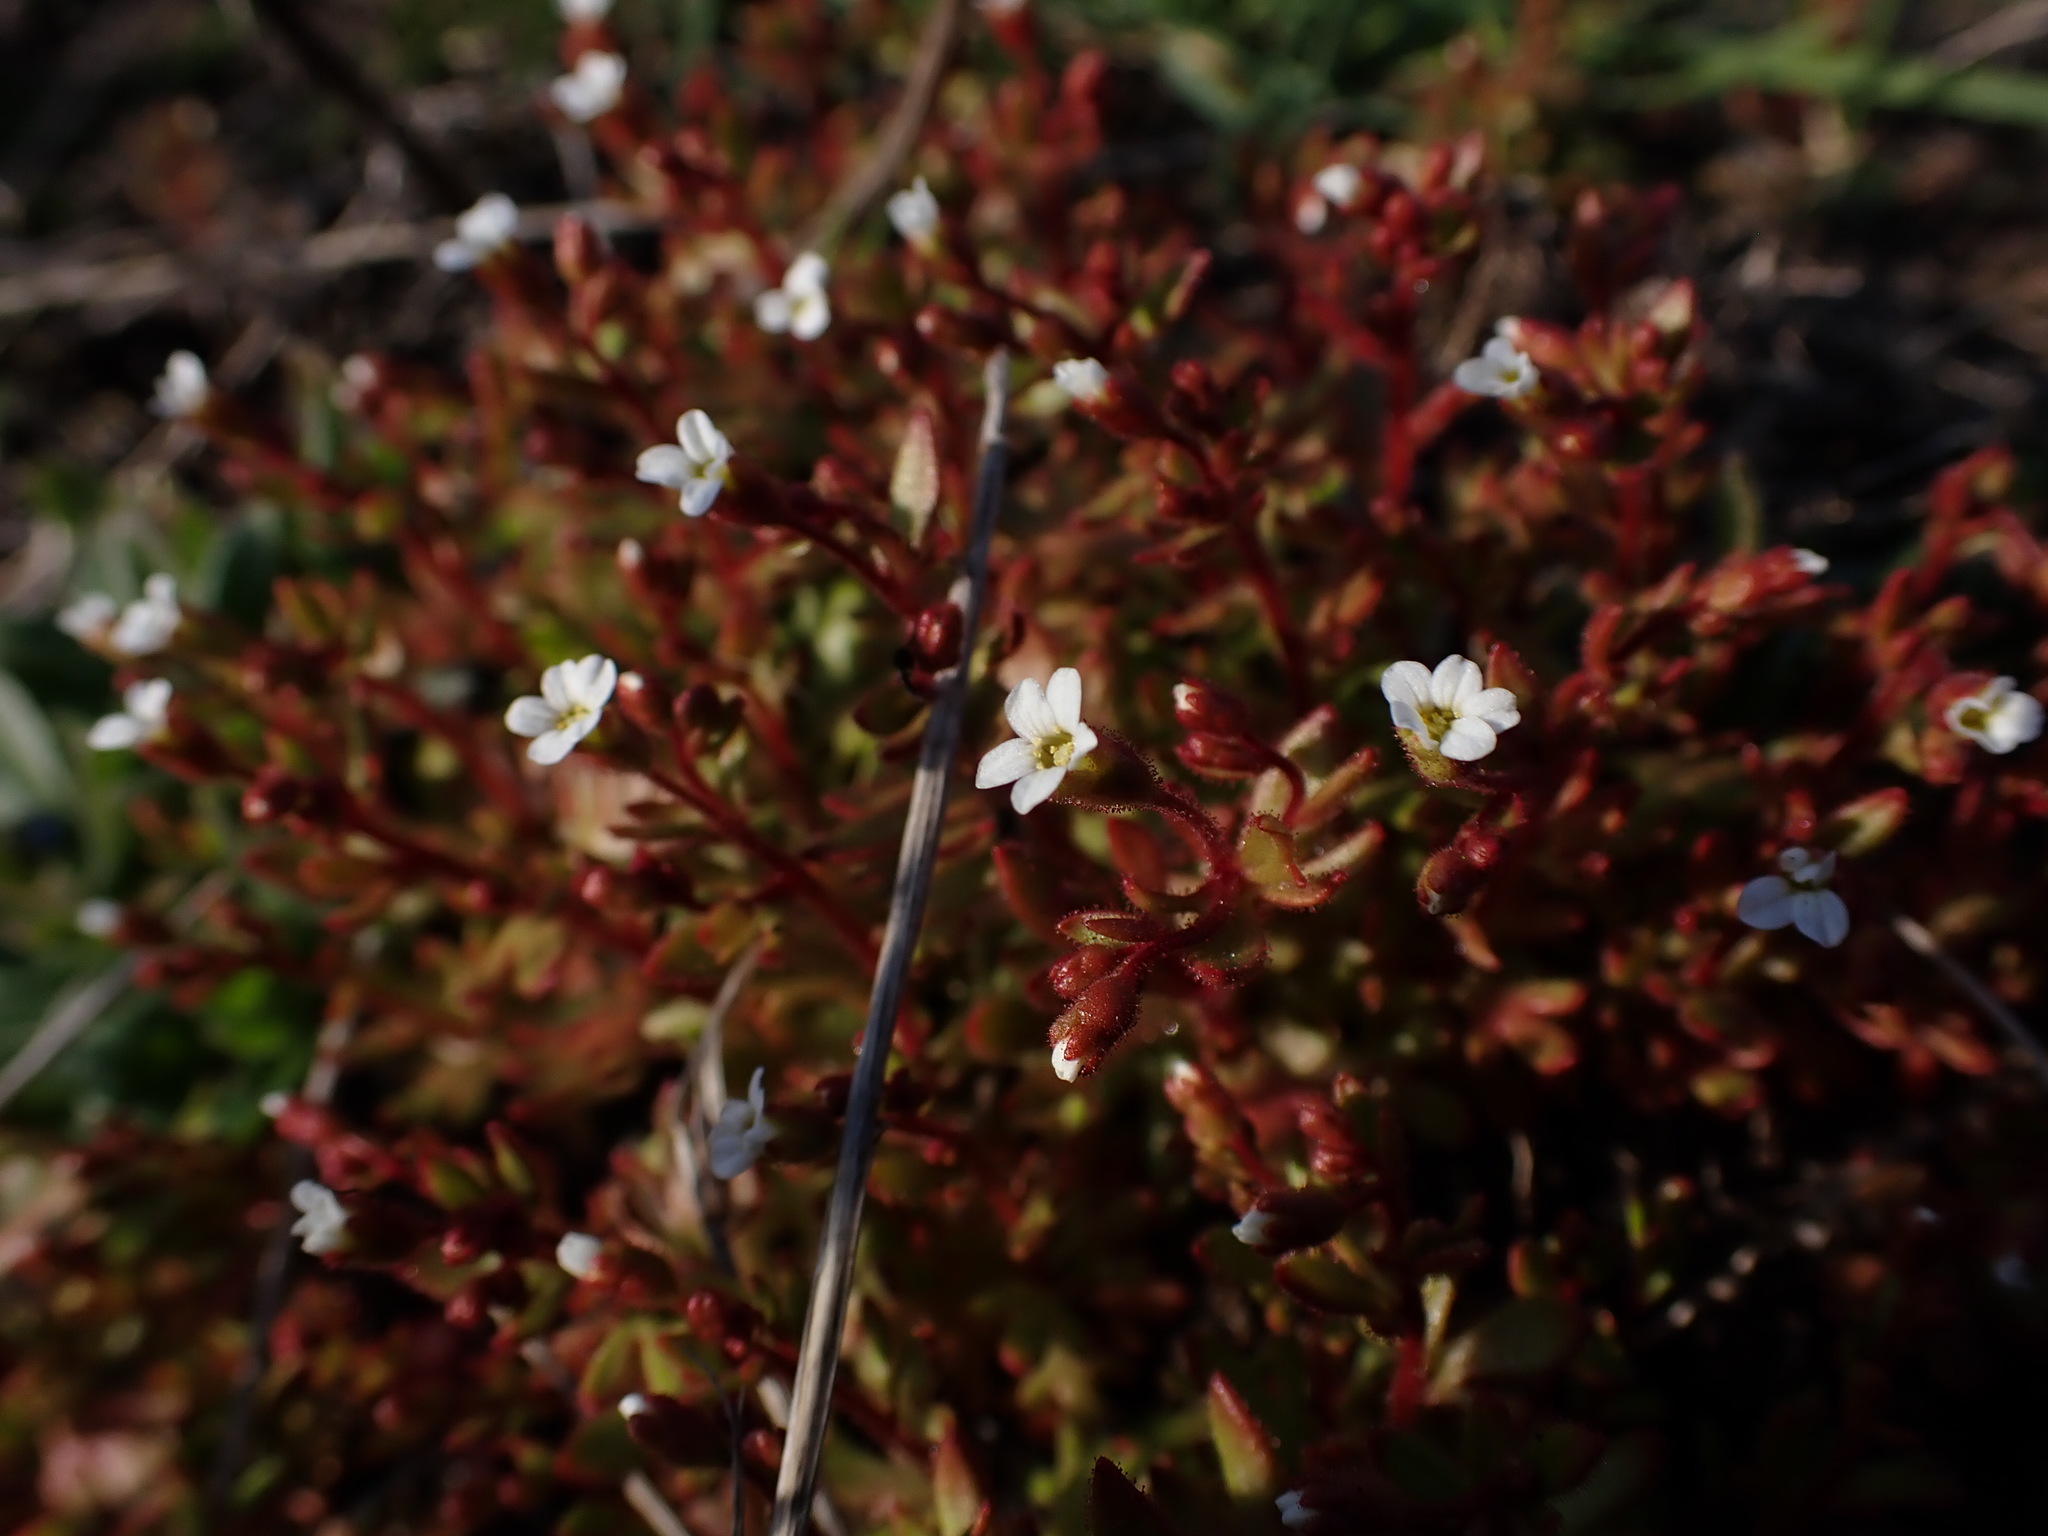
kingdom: Plantae
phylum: Tracheophyta
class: Magnoliopsida
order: Saxifragales
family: Saxifragaceae
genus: Saxifraga
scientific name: Saxifraga tridactylites
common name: Rue-leaved saxifrage
